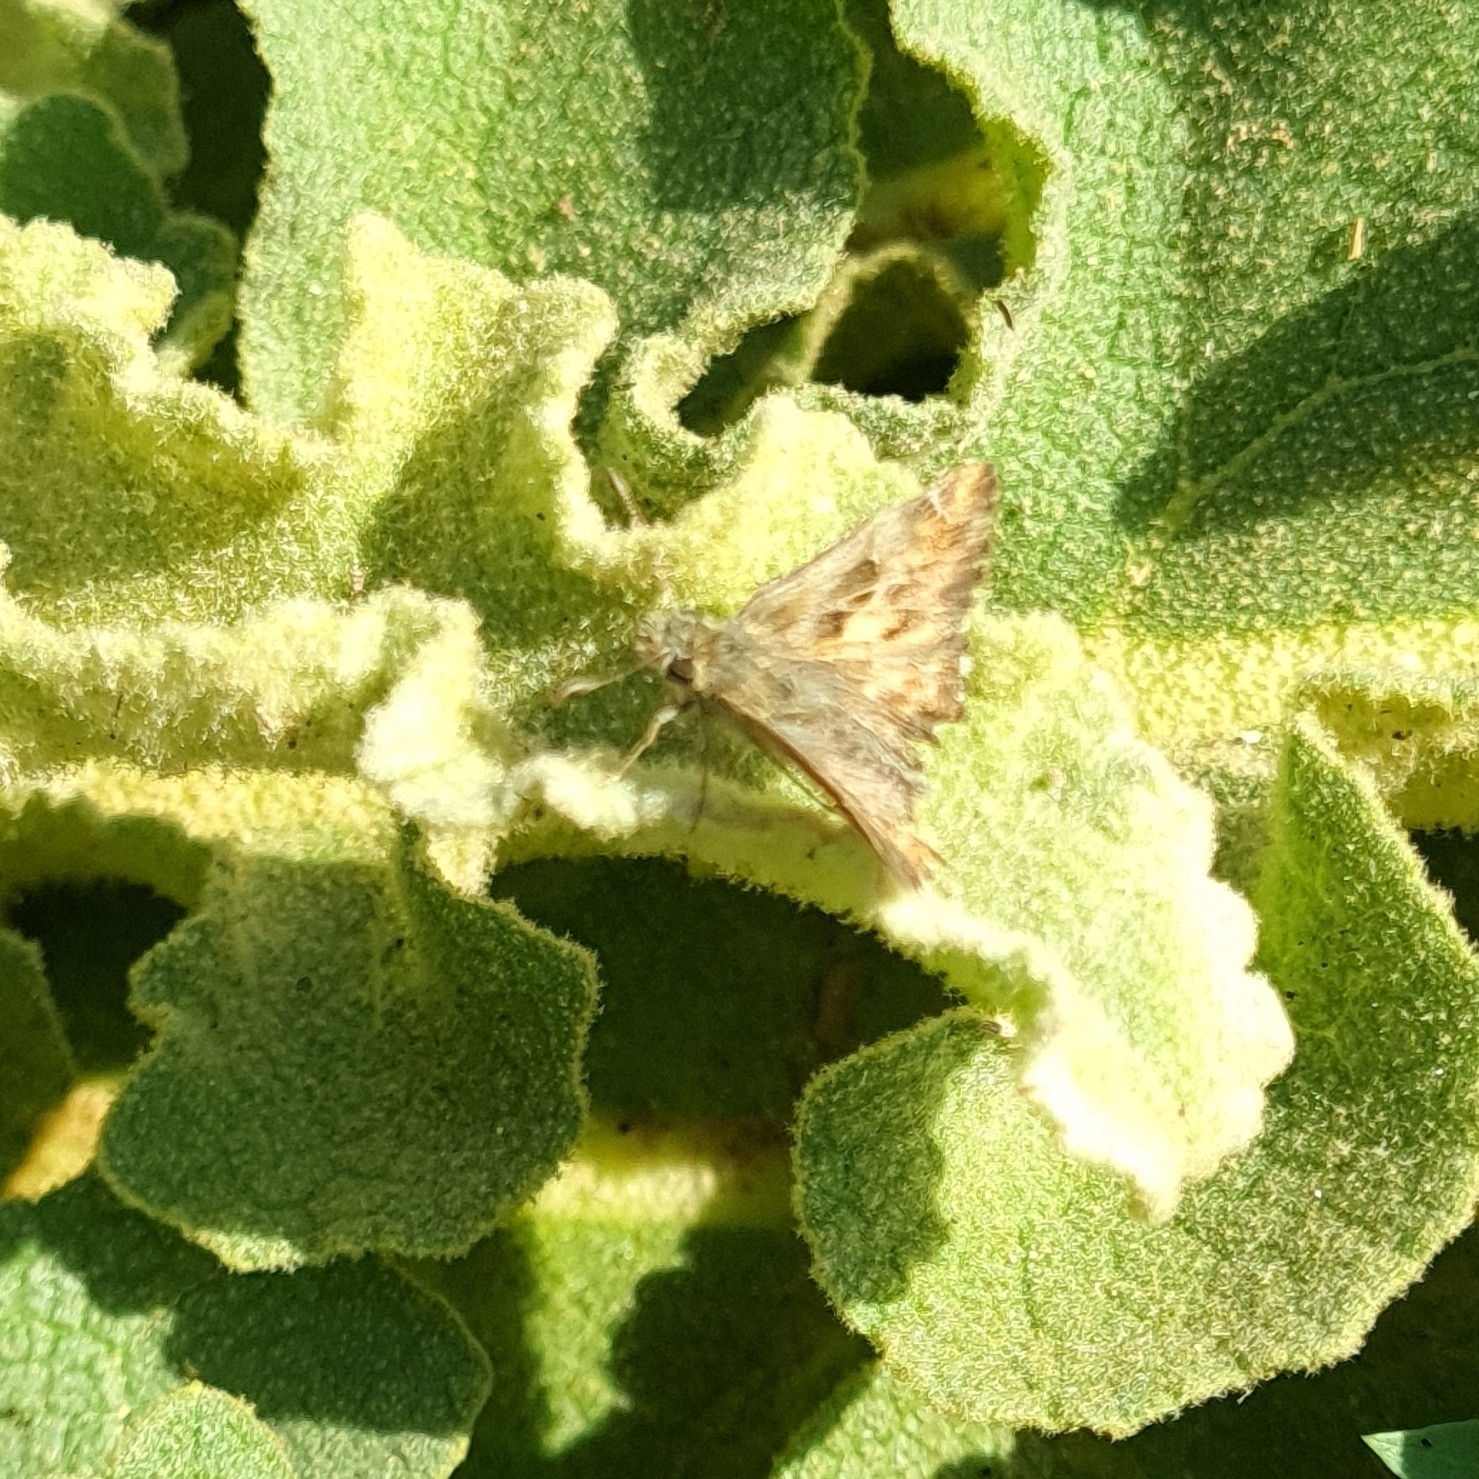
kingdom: Animalia
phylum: Arthropoda
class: Insecta
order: Lepidoptera
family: Hesperiidae
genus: Carcharodus
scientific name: Carcharodus alceae
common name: Mallow skipper
